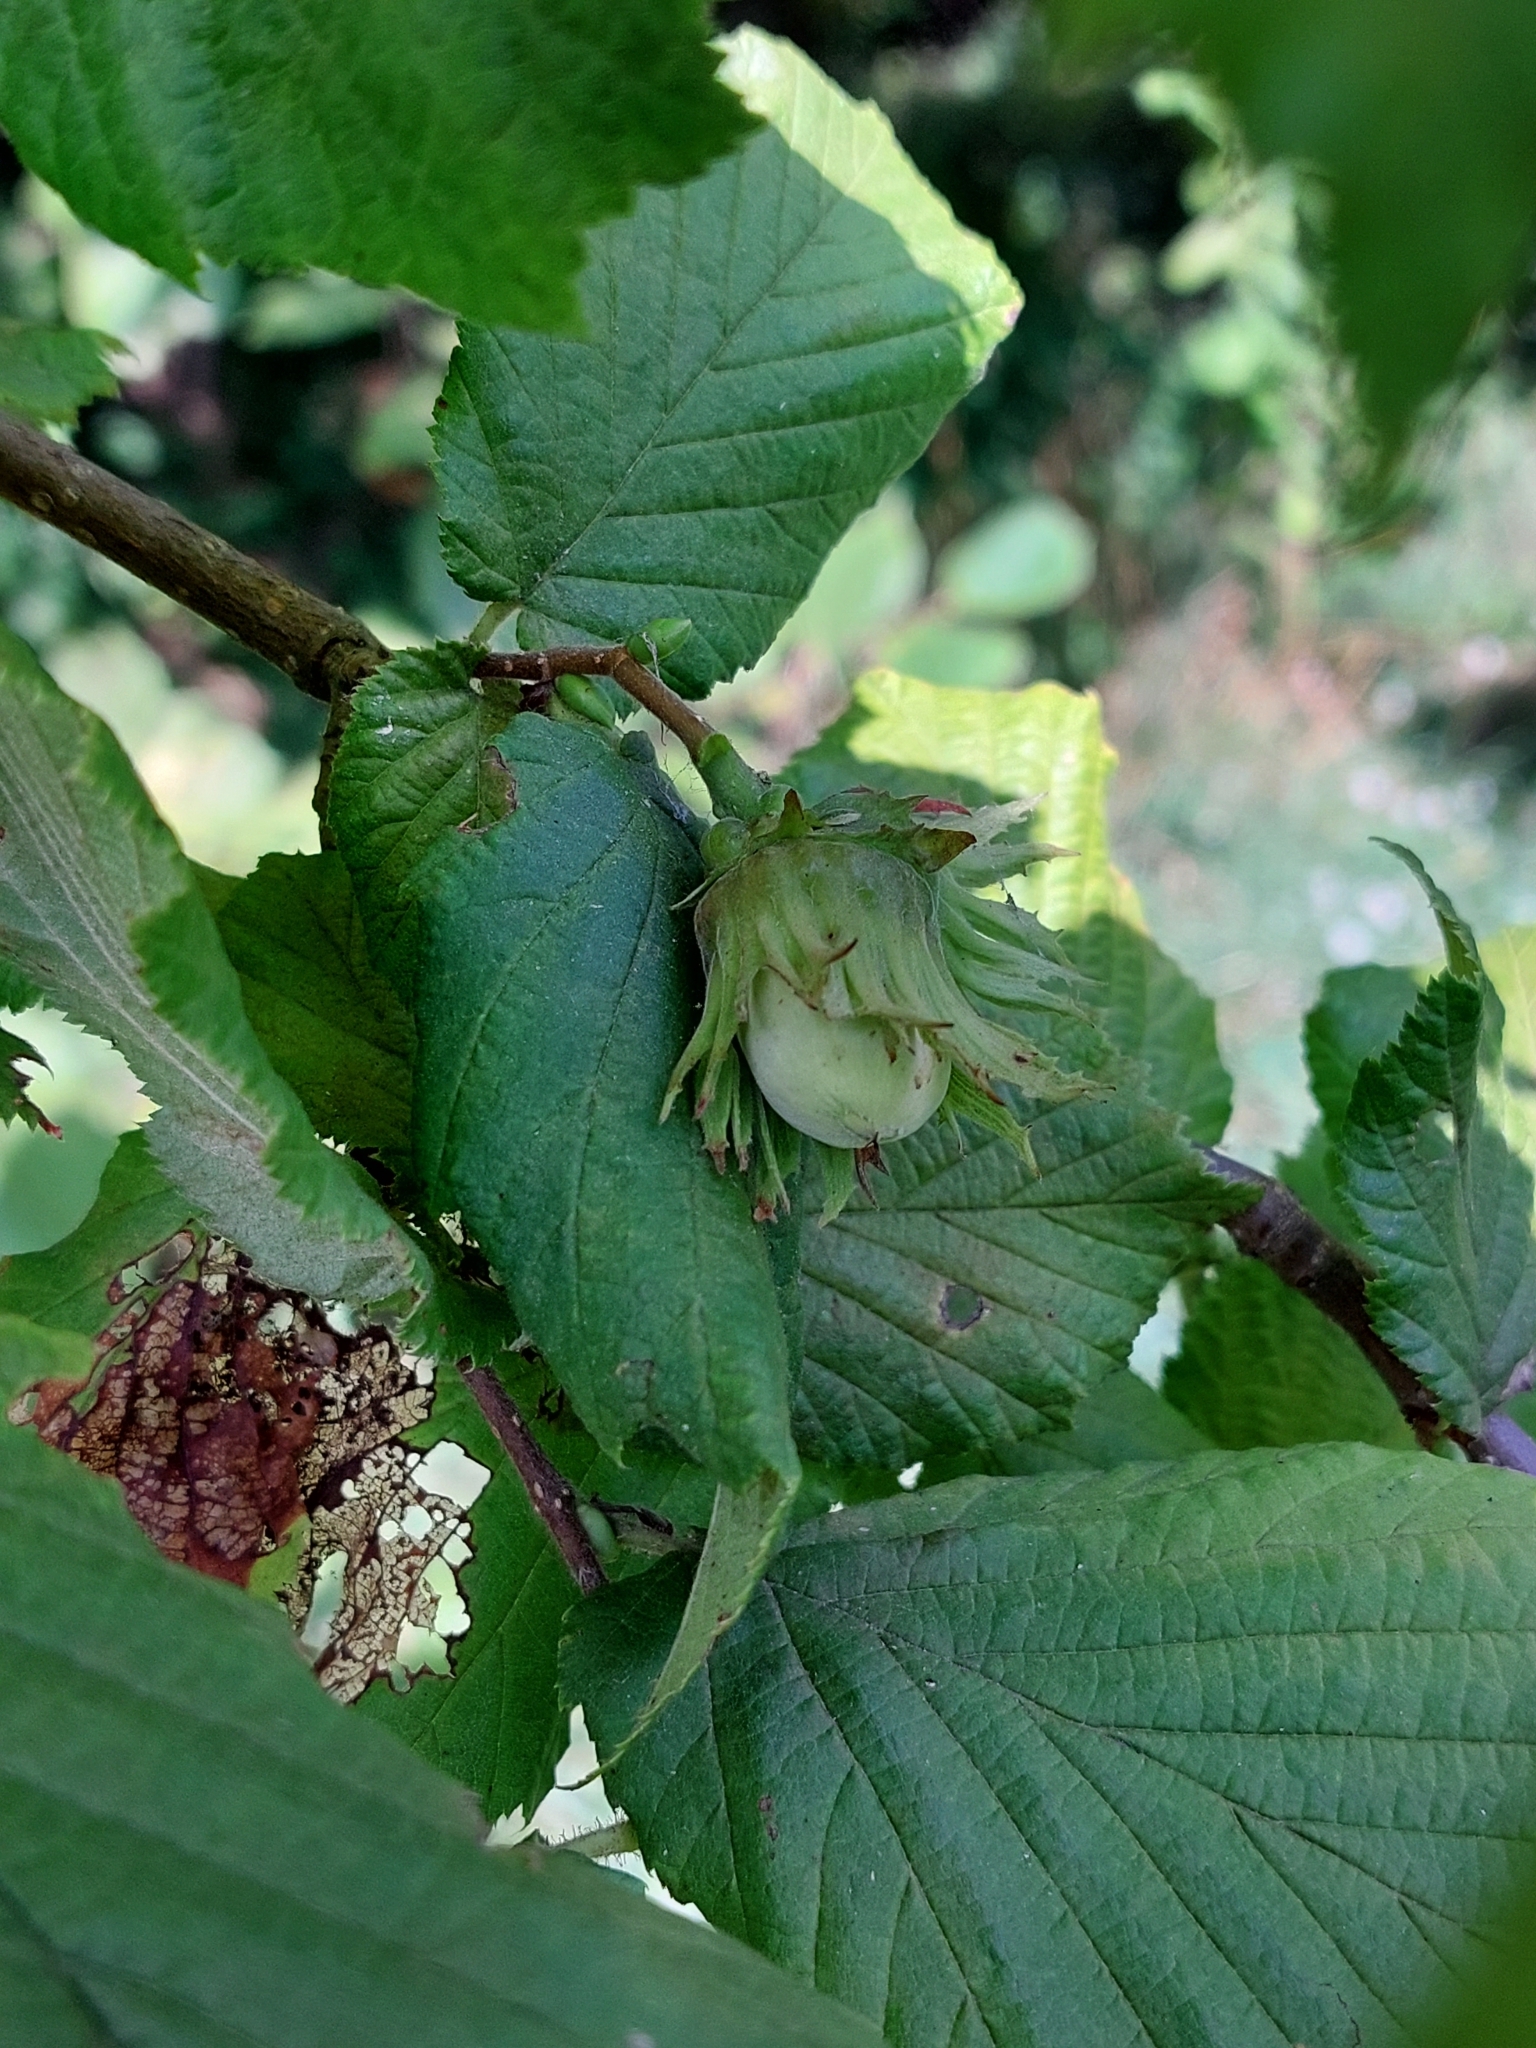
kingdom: Plantae
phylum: Tracheophyta
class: Magnoliopsida
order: Fagales
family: Betulaceae
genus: Corylus
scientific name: Corylus avellana
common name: European hazel
